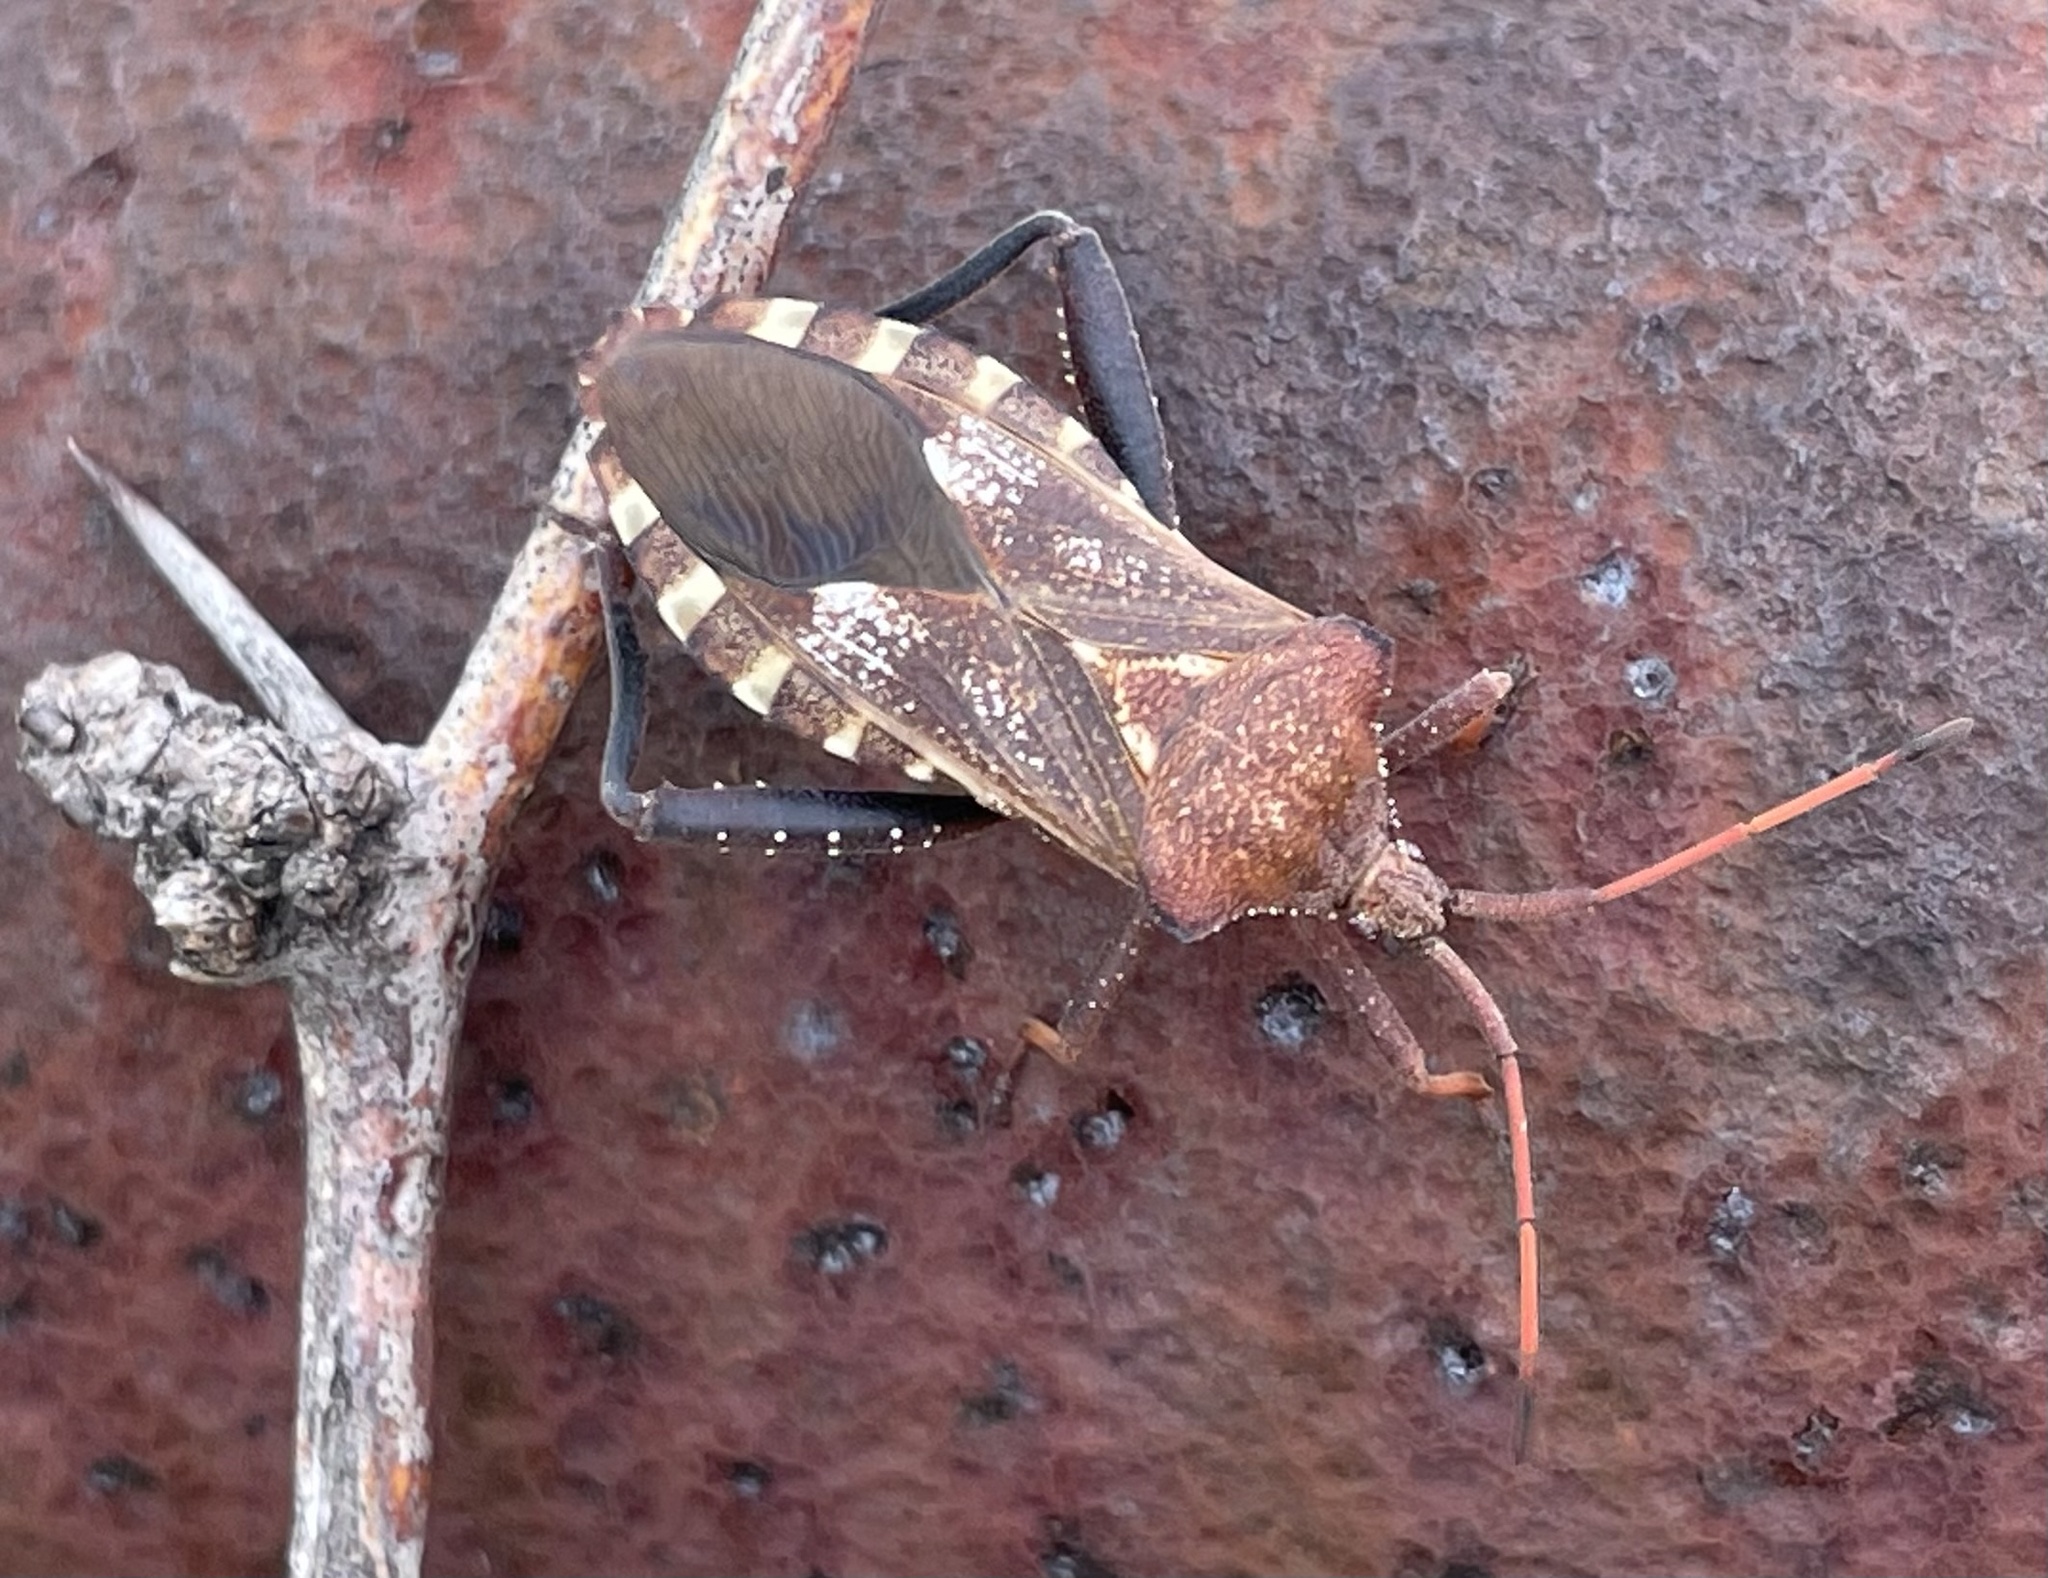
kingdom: Animalia
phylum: Arthropoda
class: Insecta
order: Hemiptera
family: Coreidae
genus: Mozena
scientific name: Mozena obtusa
